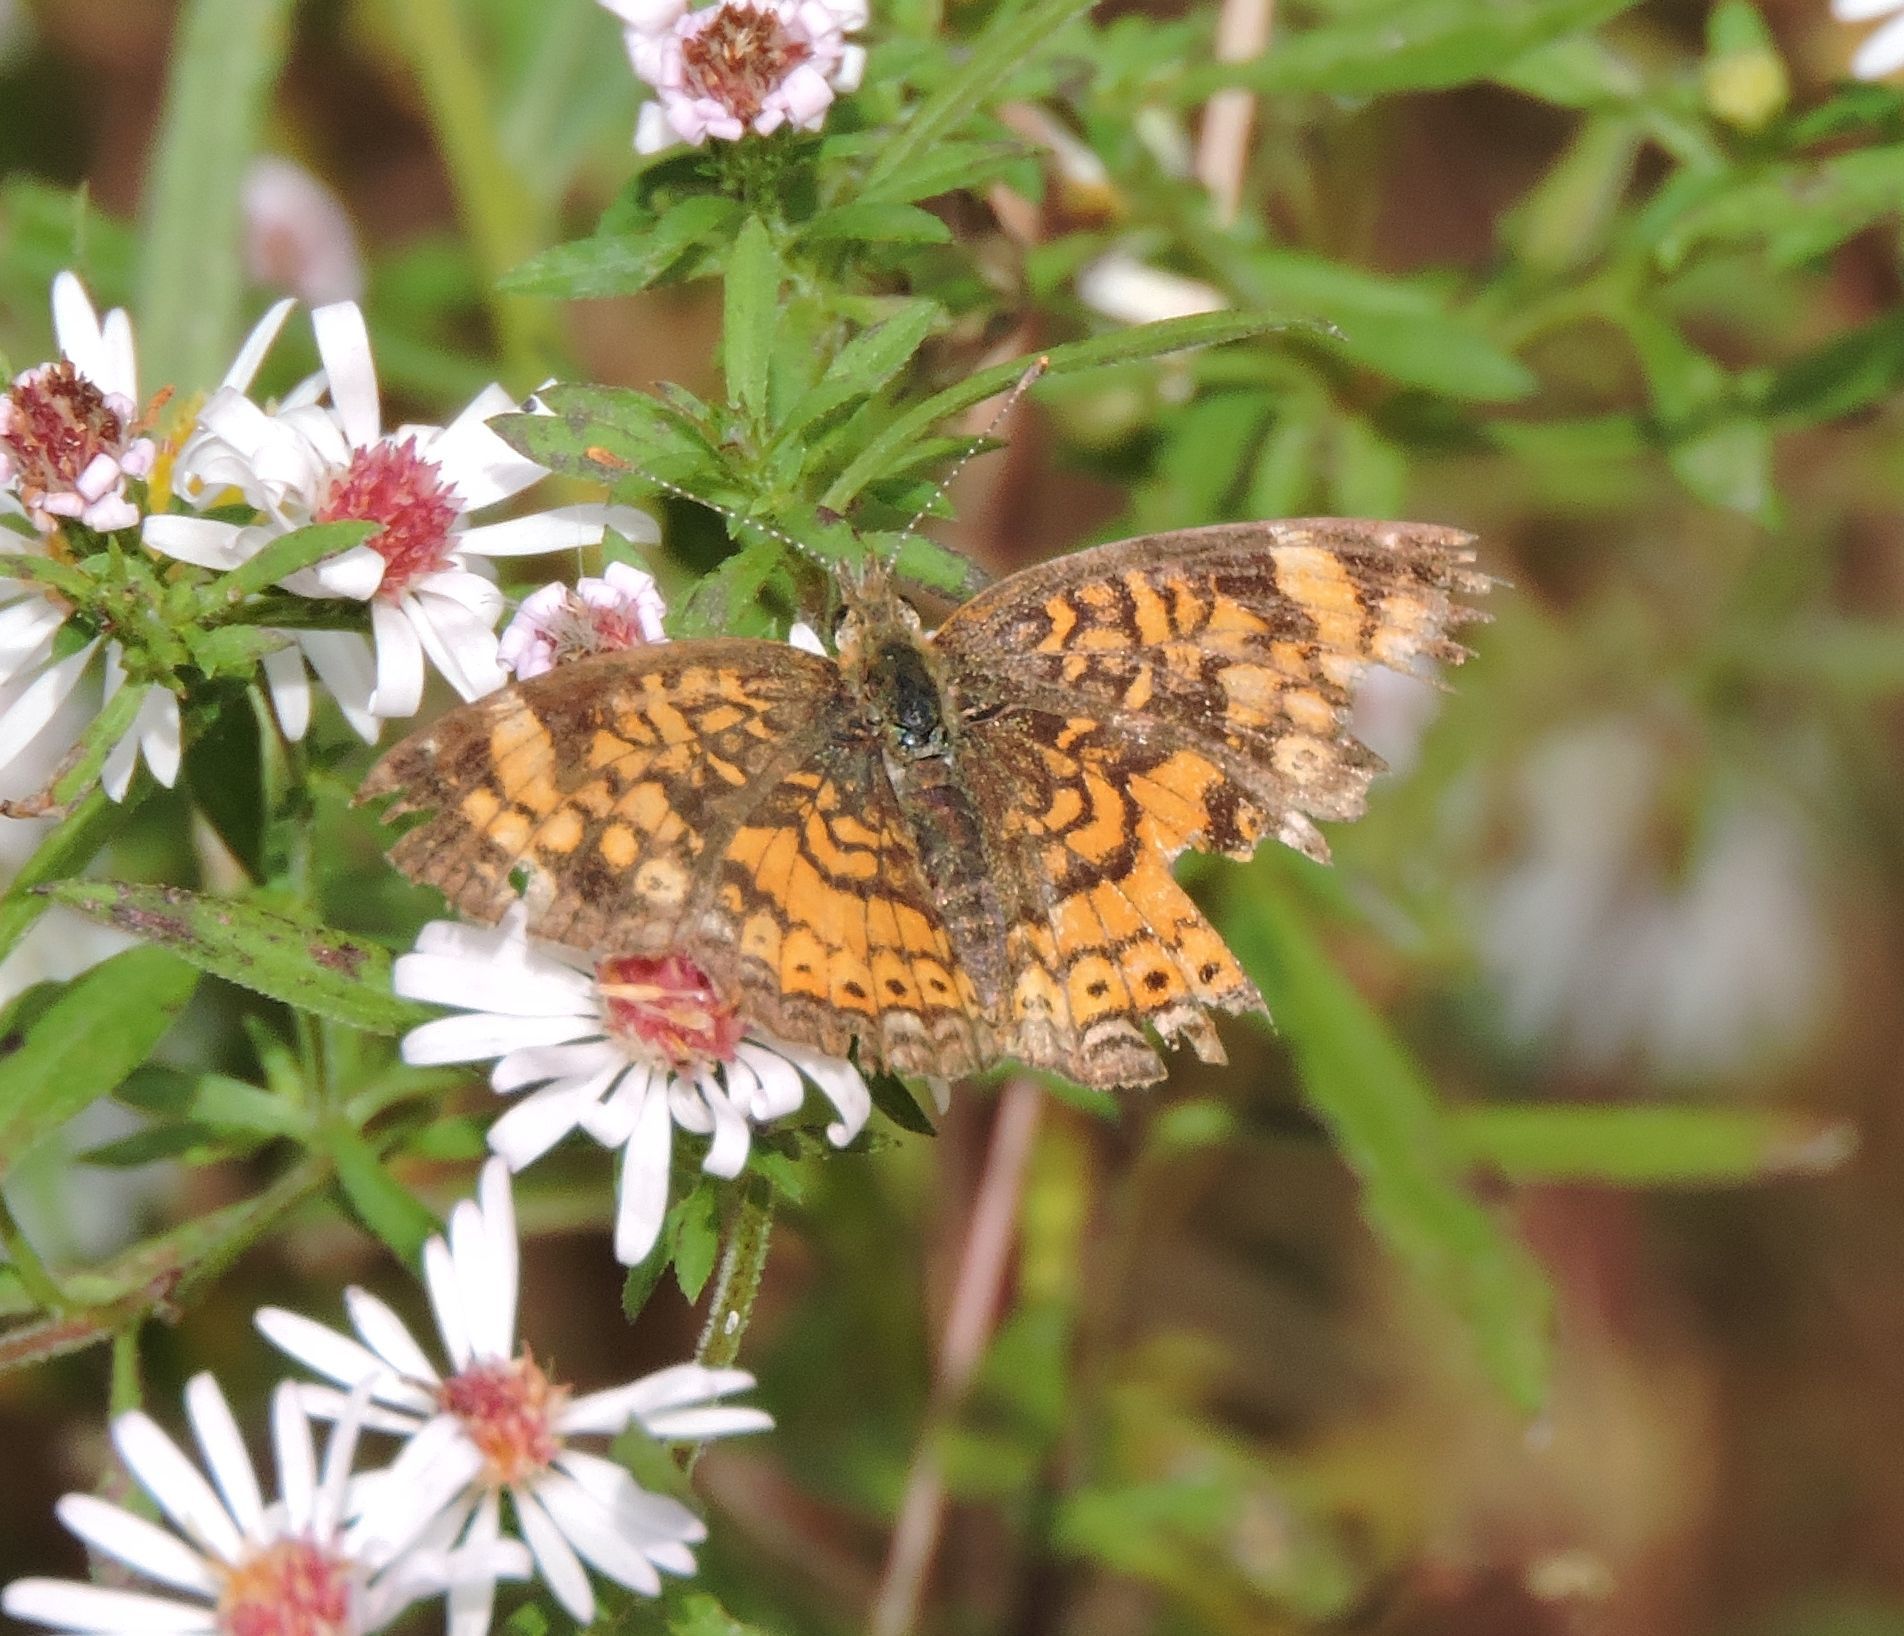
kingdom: Animalia
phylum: Arthropoda
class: Insecta
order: Lepidoptera
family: Nymphalidae
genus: Phyciodes
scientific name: Phyciodes tharos
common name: Pearl crescent
